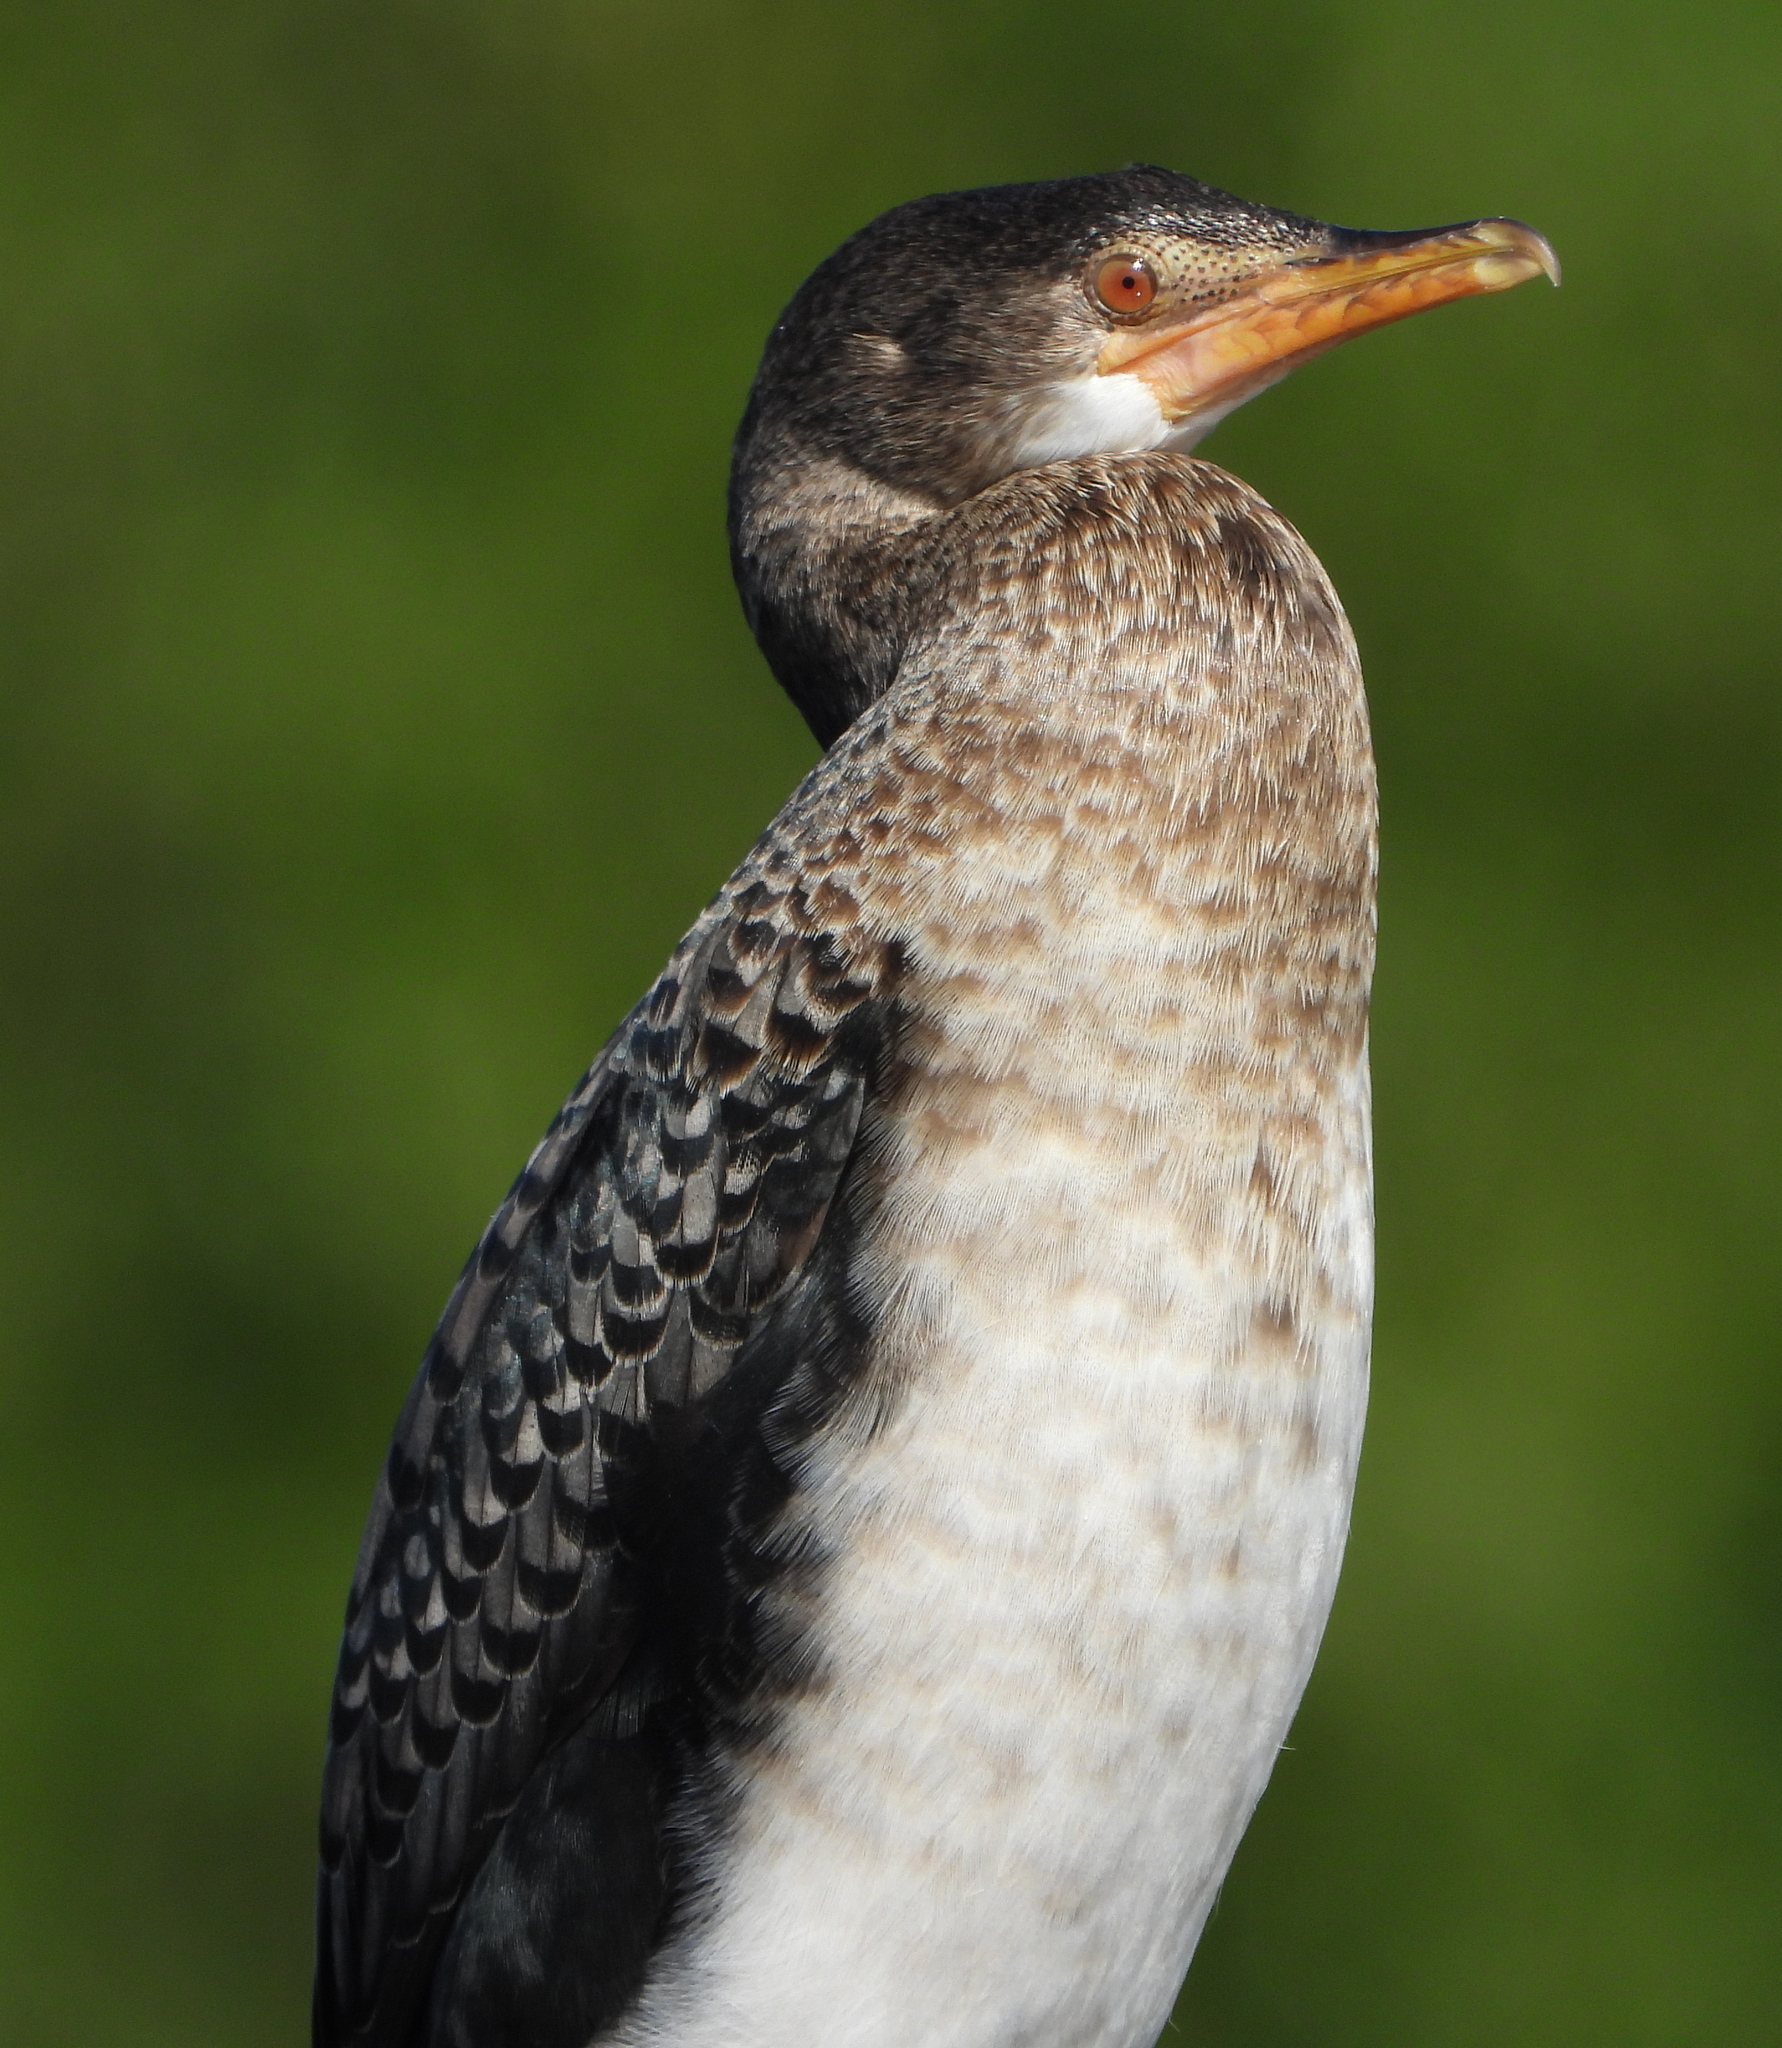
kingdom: Animalia
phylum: Chordata
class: Aves
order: Suliformes
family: Phalacrocoracidae
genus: Microcarbo
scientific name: Microcarbo africanus
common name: Long-tailed cormorant
